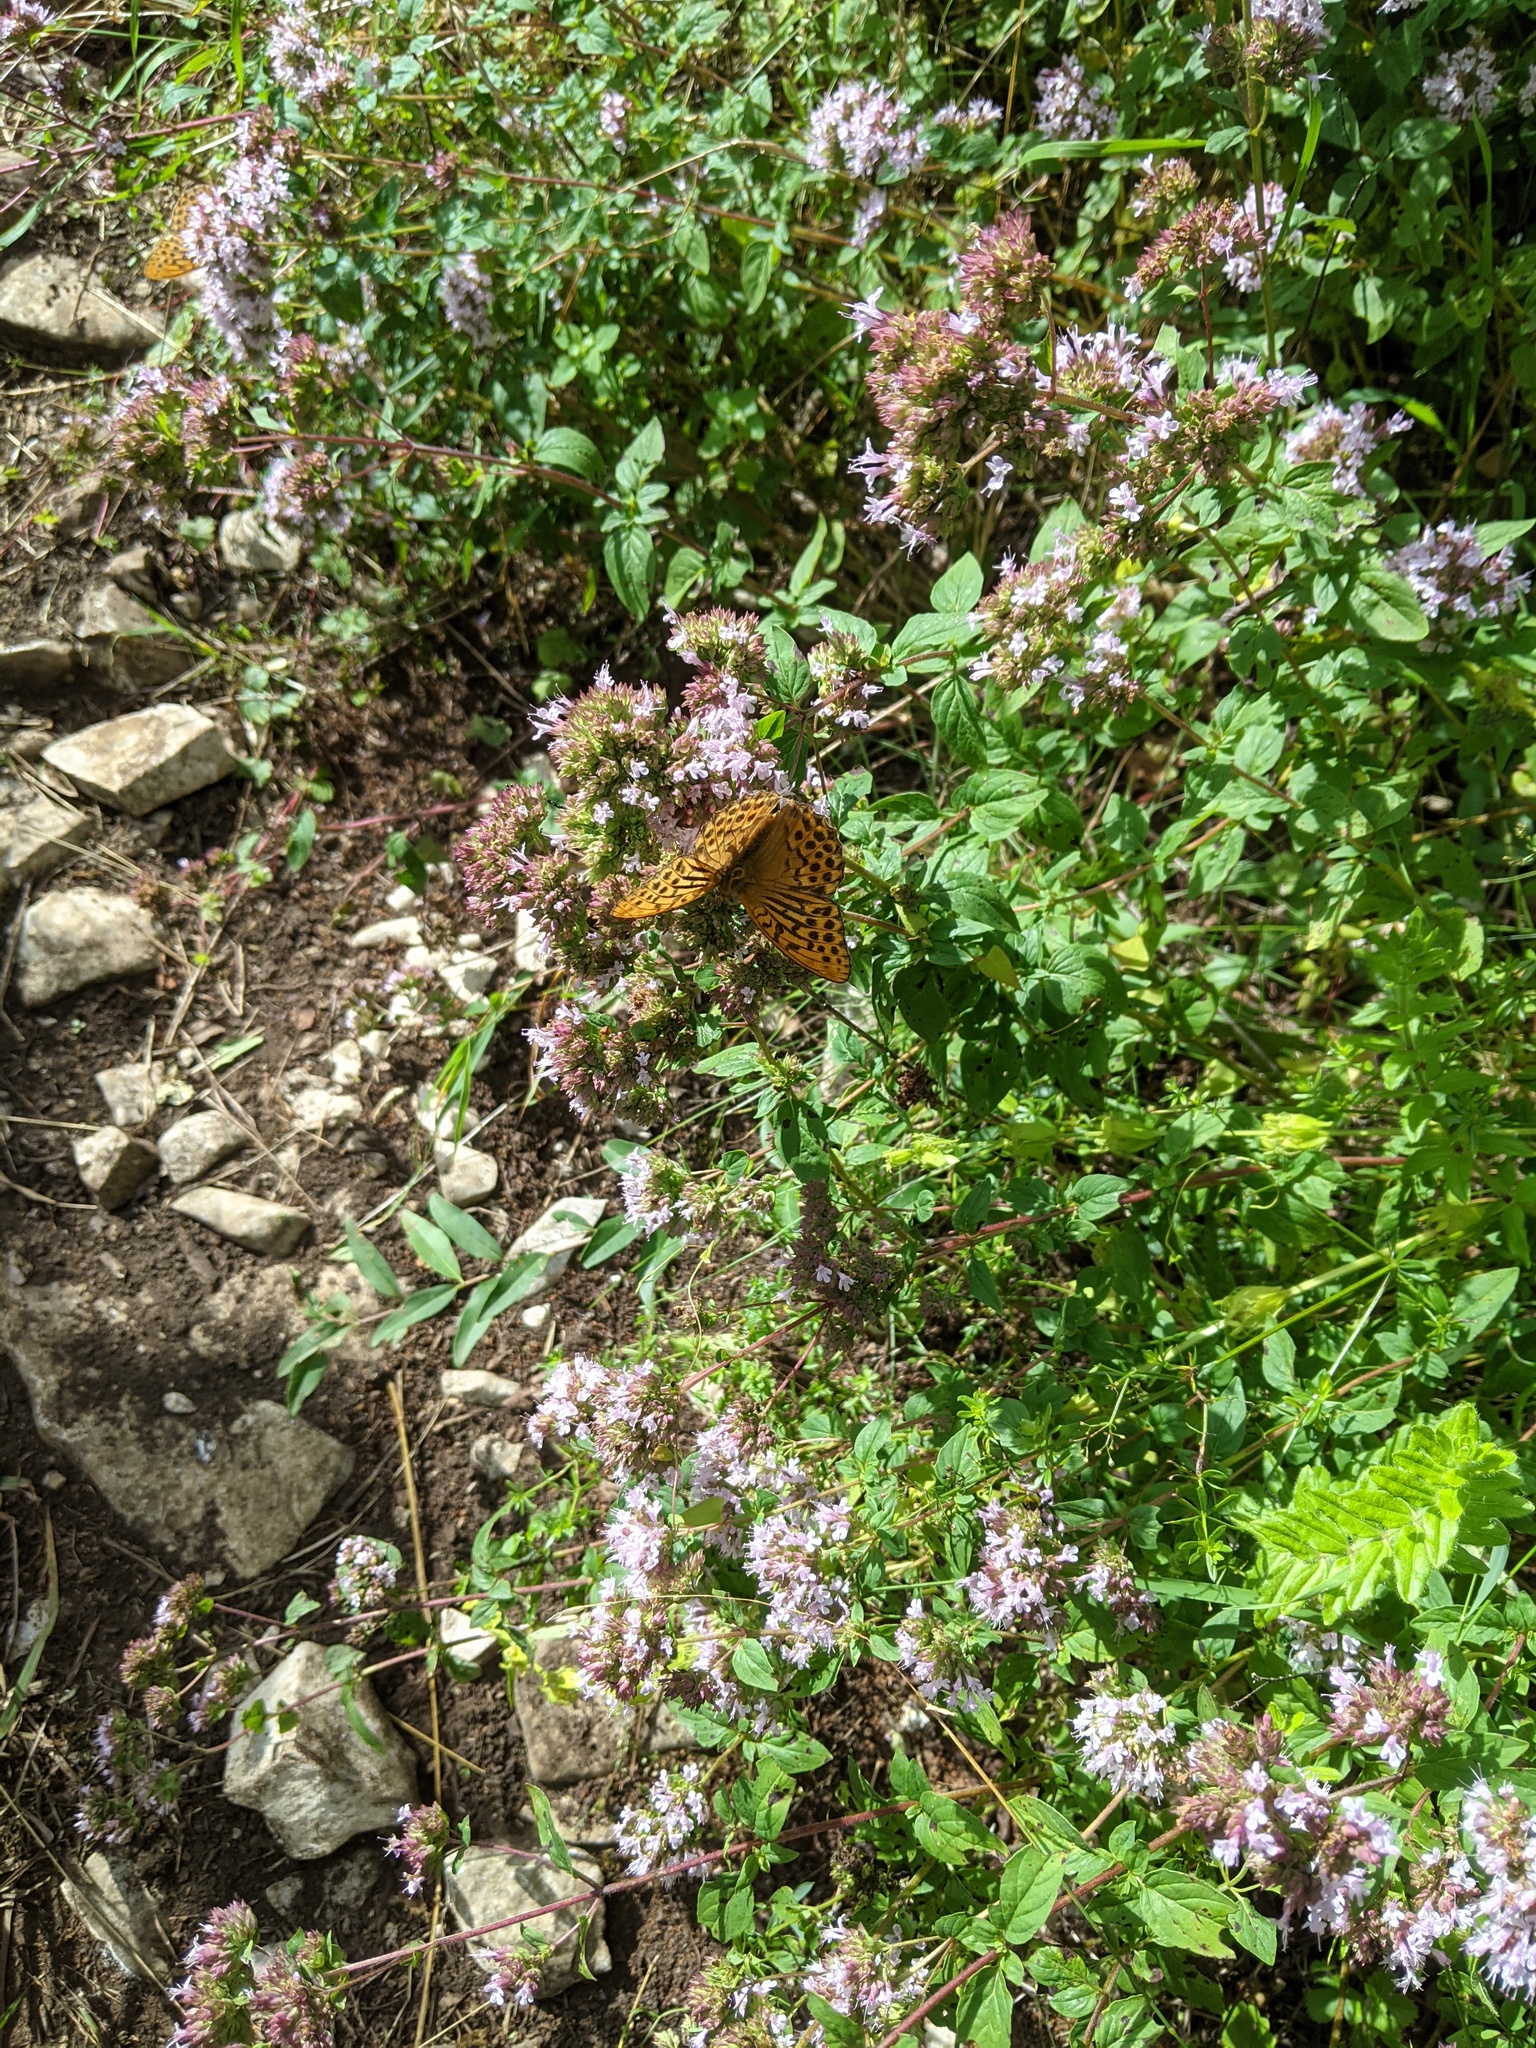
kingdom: Animalia
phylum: Arthropoda
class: Insecta
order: Lepidoptera
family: Nymphalidae
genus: Argynnis
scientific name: Argynnis paphia
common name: Silver-washed fritillary
